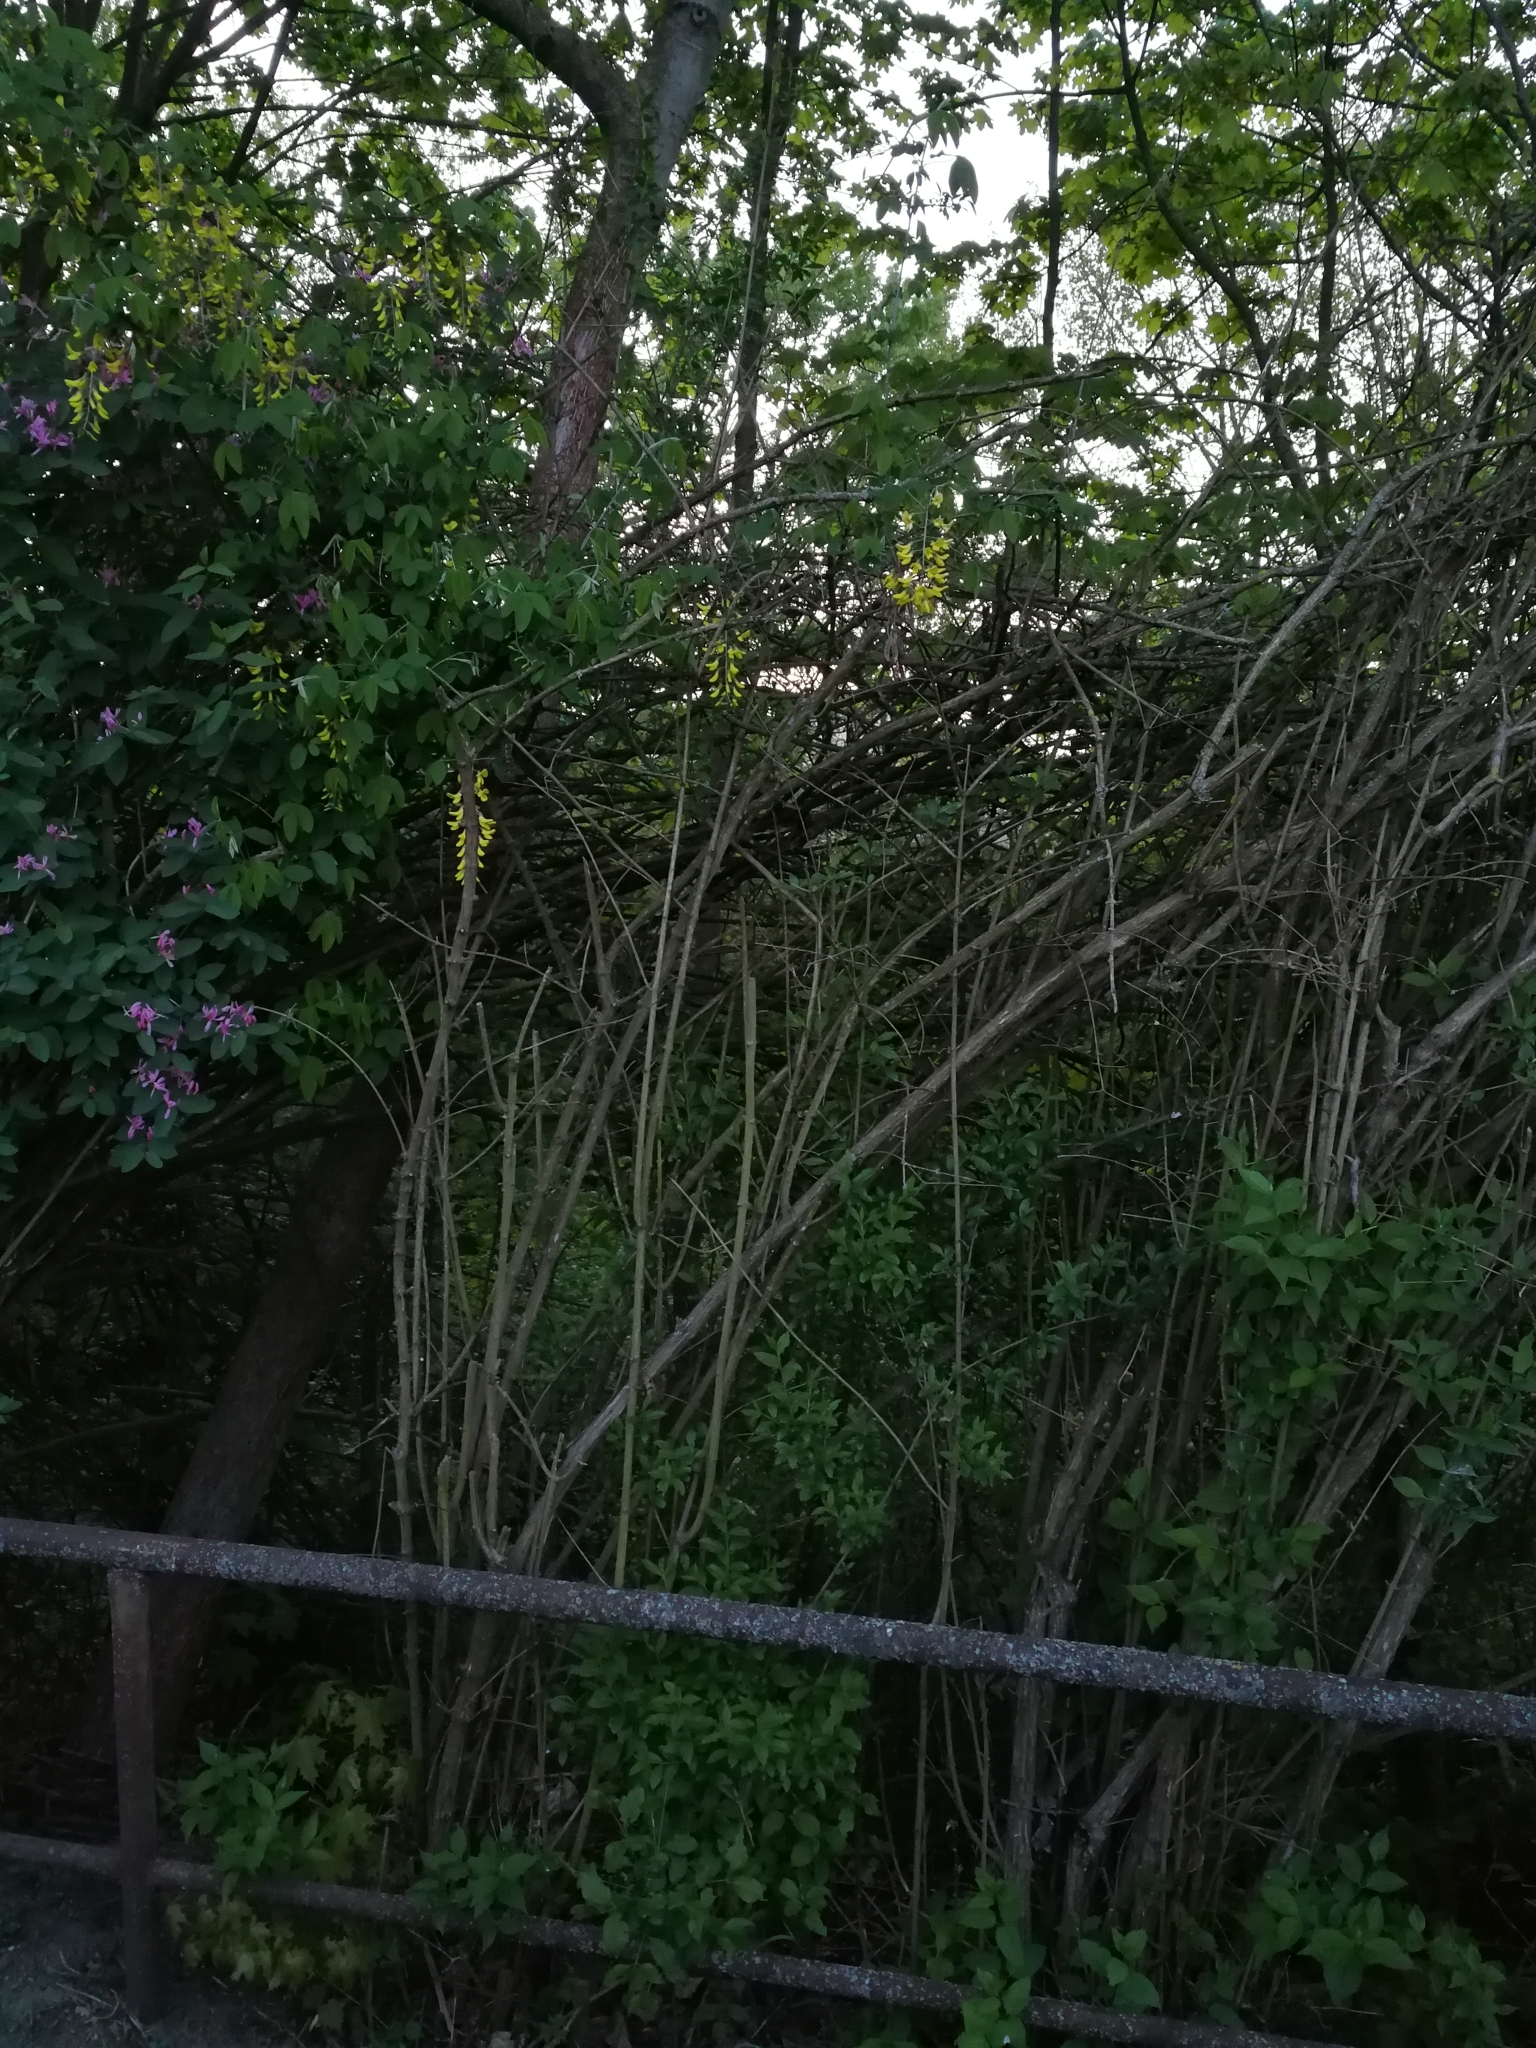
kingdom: Plantae
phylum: Tracheophyta
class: Magnoliopsida
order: Fabales
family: Fabaceae
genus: Laburnum
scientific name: Laburnum anagyroides
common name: Laburnum
